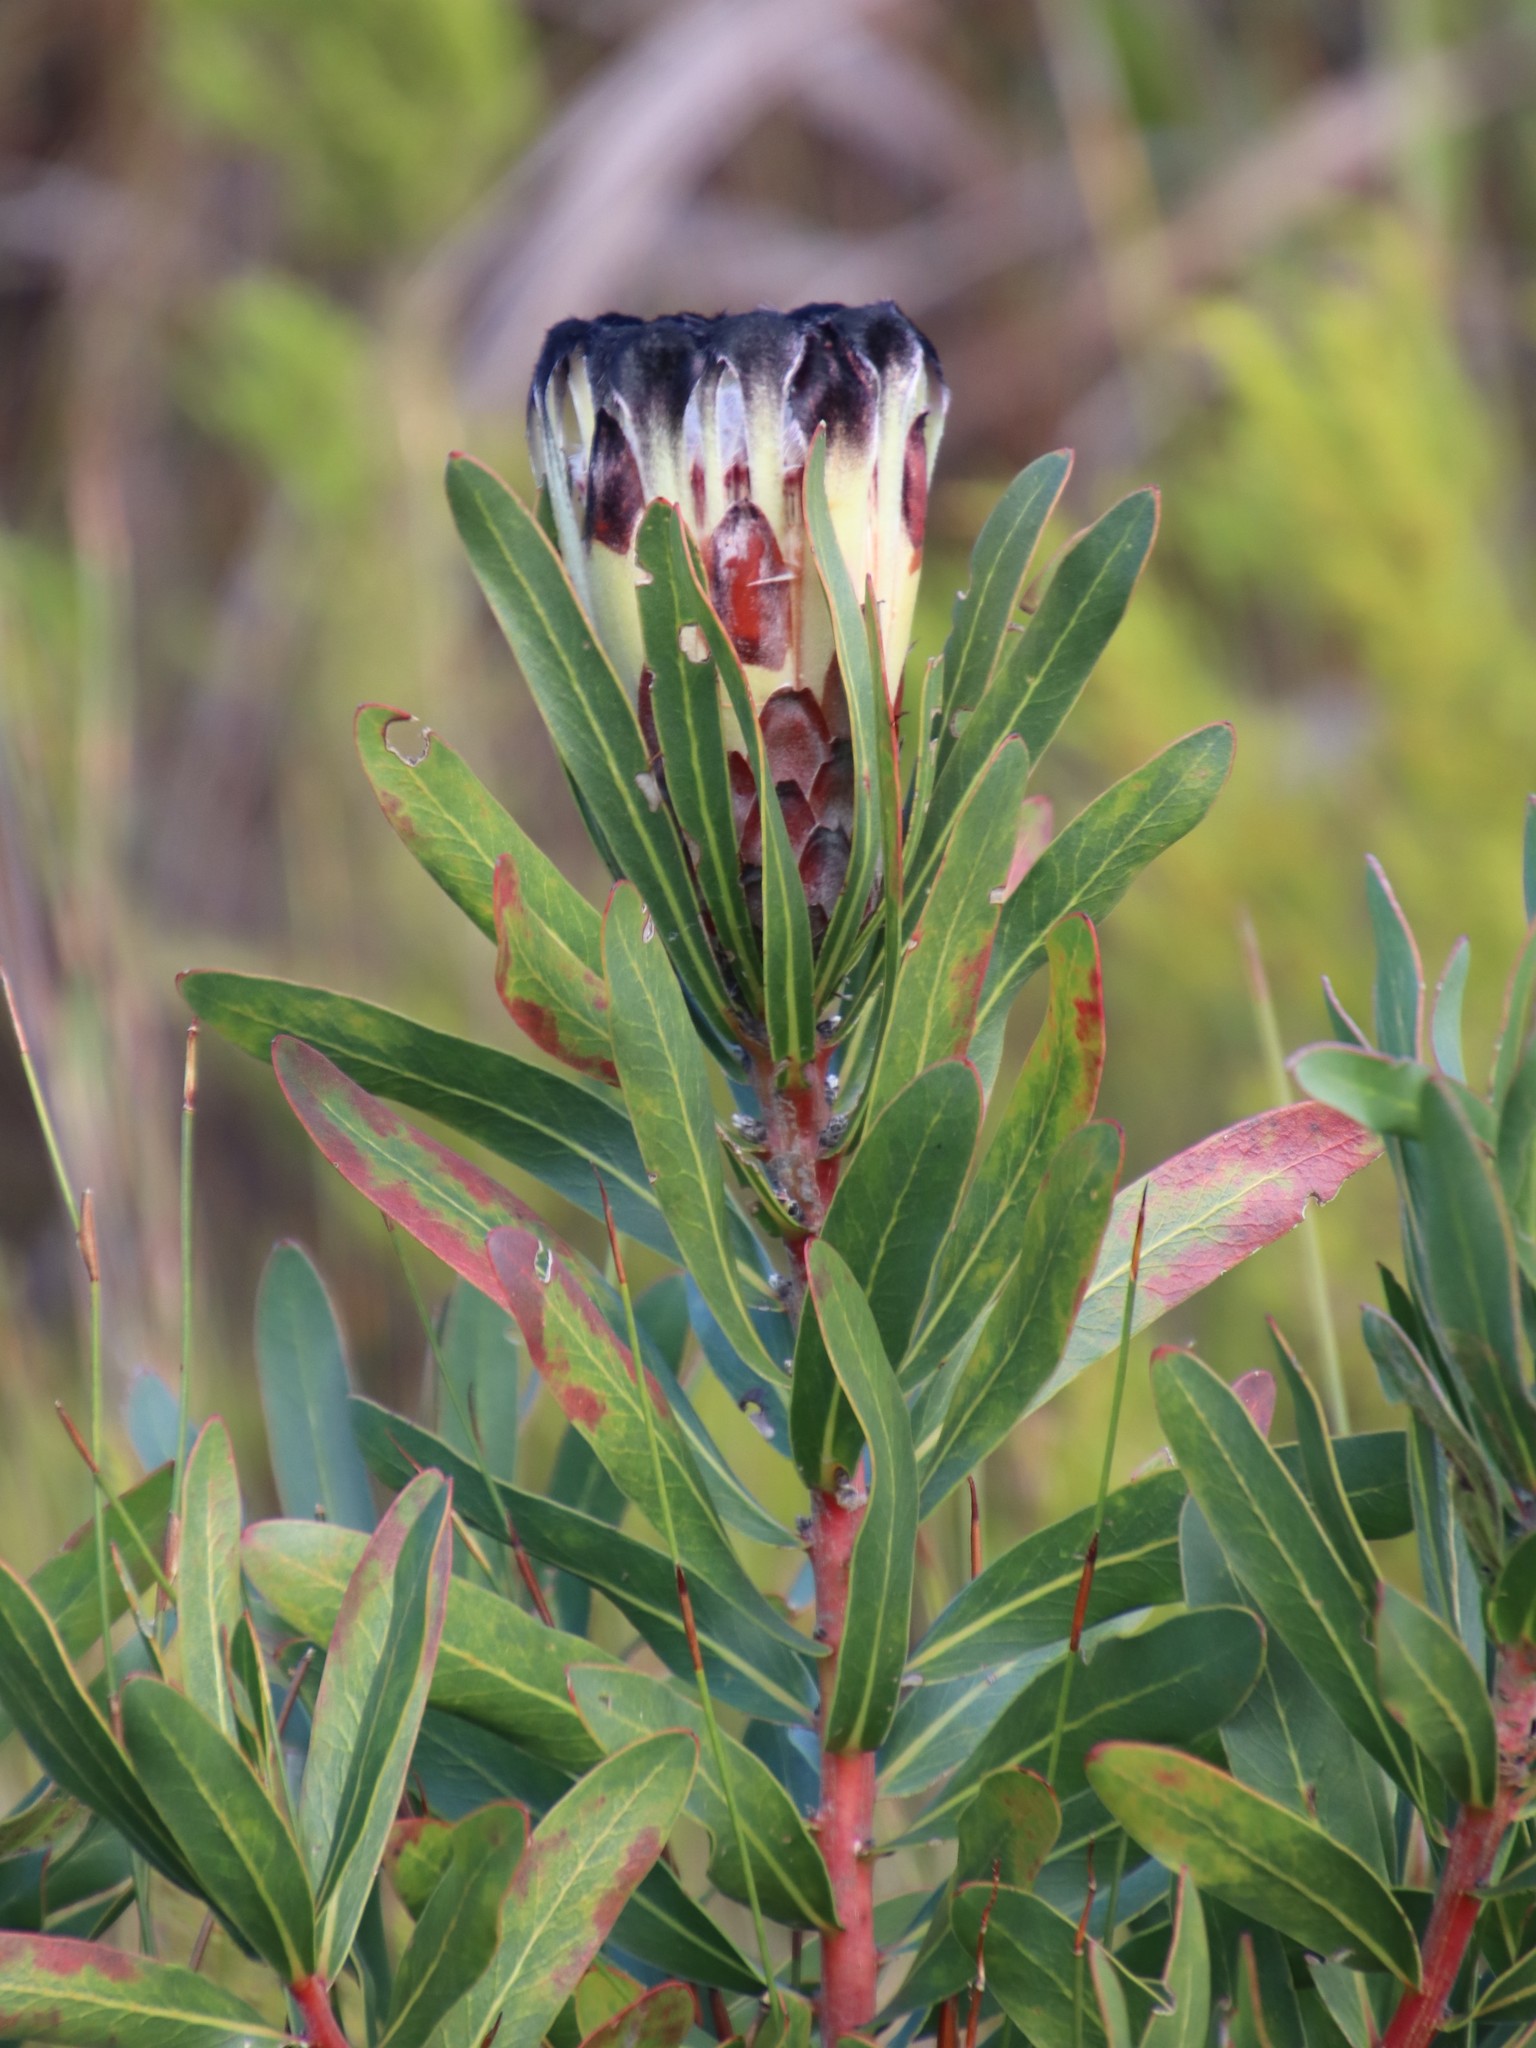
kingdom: Plantae
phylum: Tracheophyta
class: Magnoliopsida
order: Proteales
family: Proteaceae
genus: Protea
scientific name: Protea lepidocarpodendron
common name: Black-bearded protea
